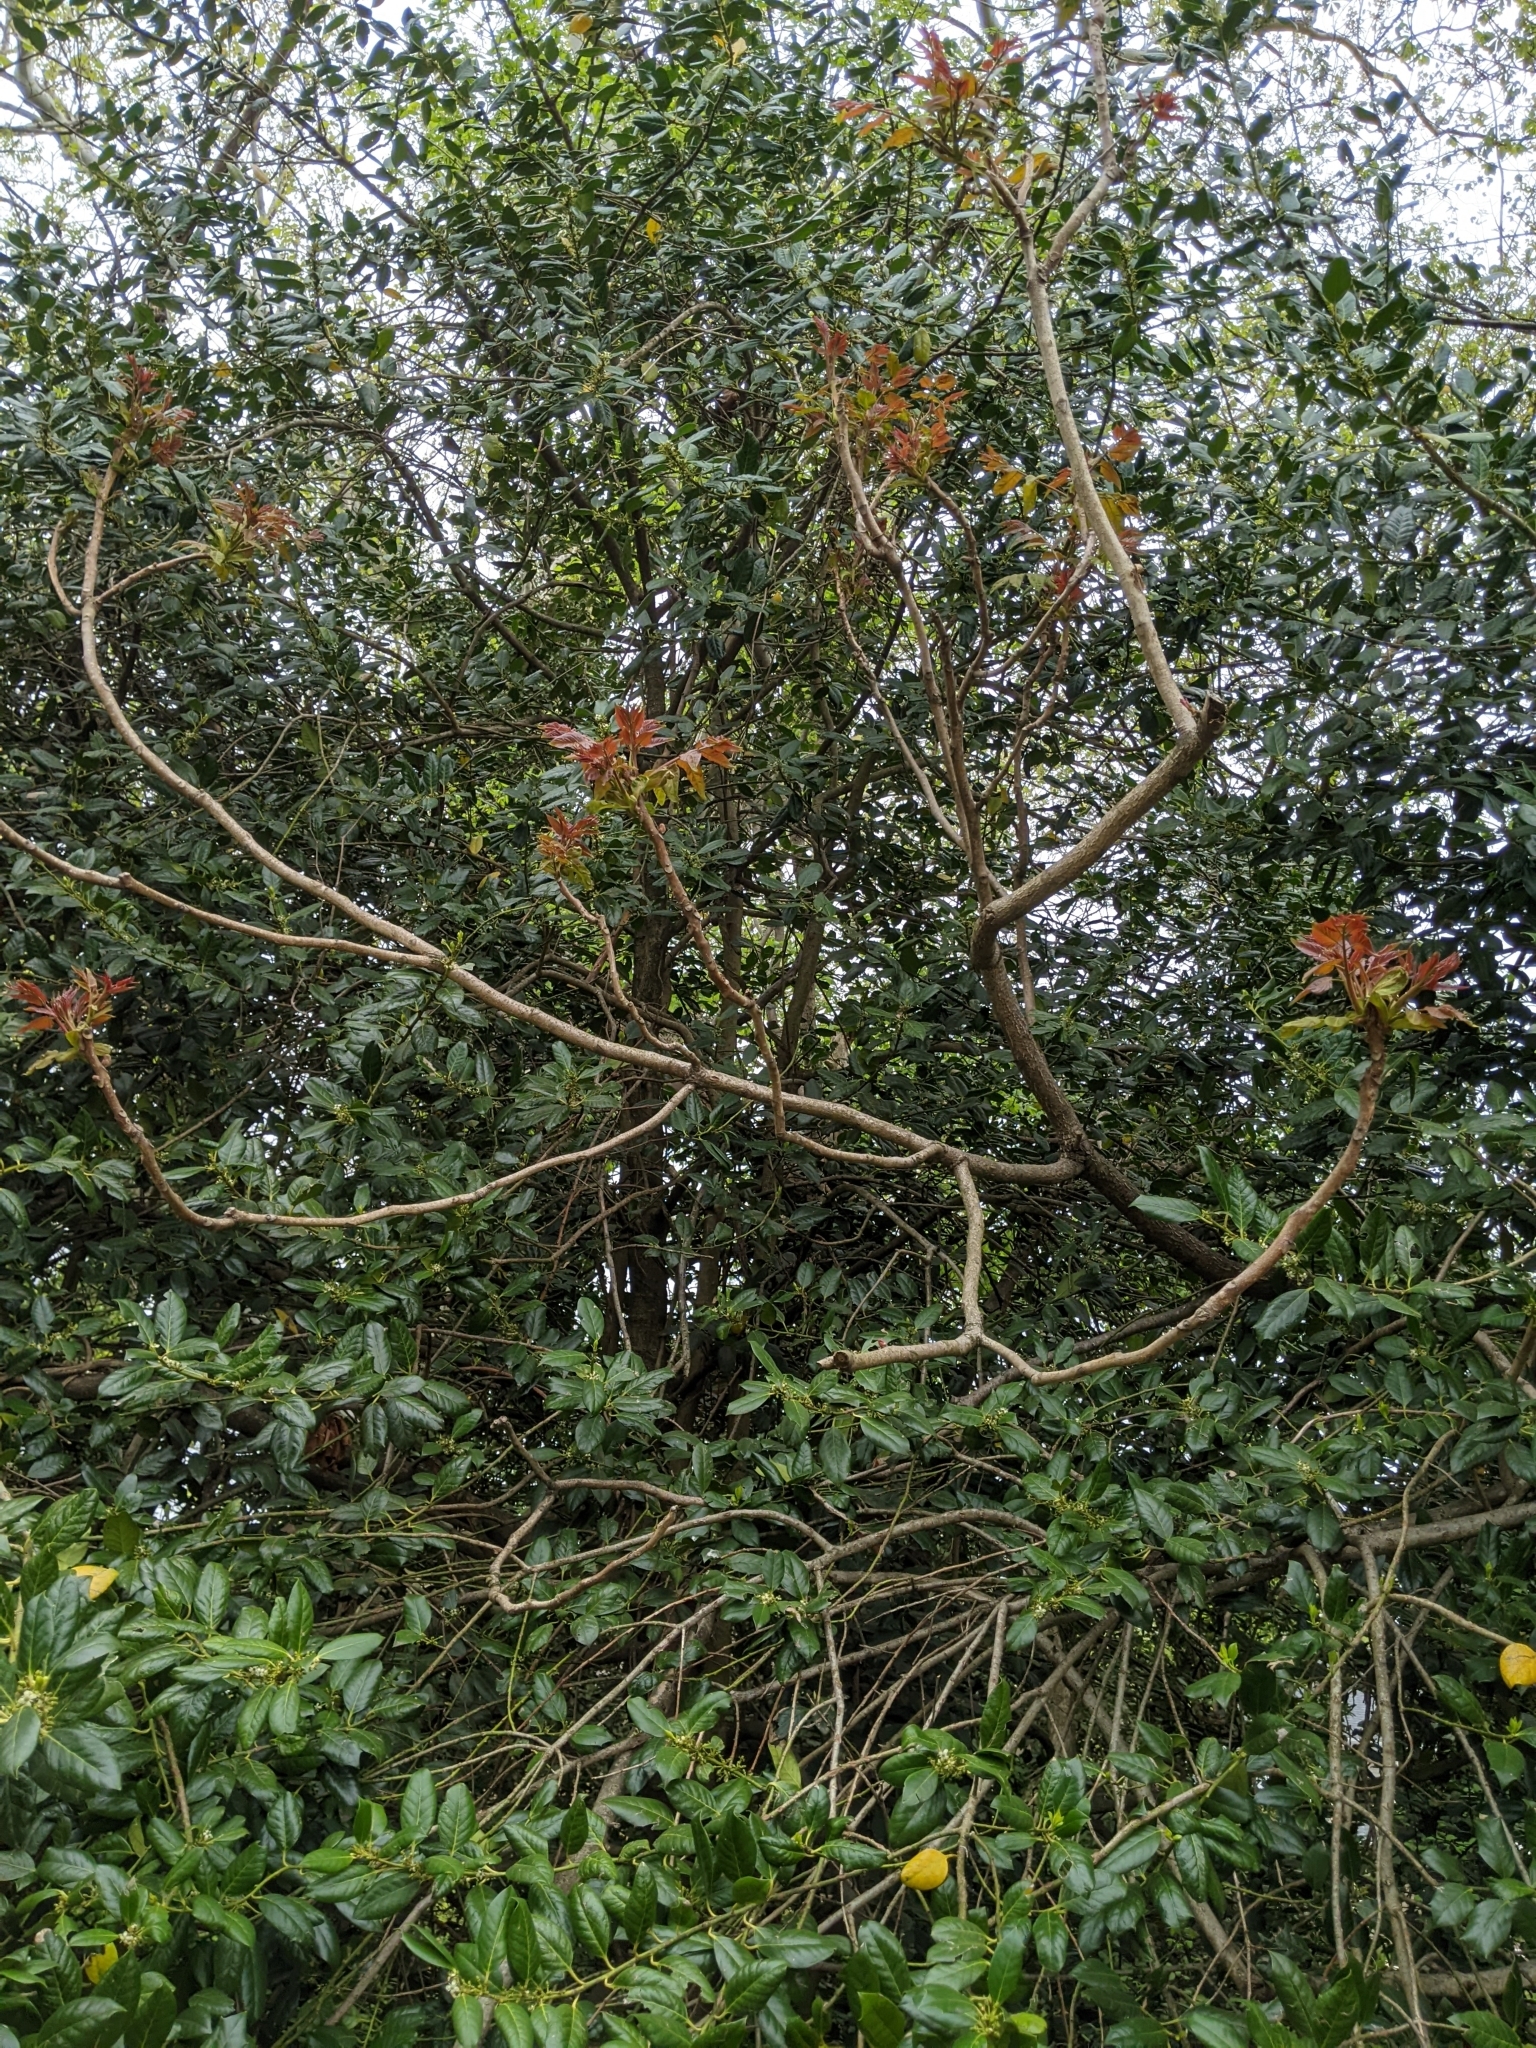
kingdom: Plantae
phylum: Tracheophyta
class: Magnoliopsida
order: Sapindales
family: Simaroubaceae
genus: Ailanthus
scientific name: Ailanthus altissima
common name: Tree-of-heaven
